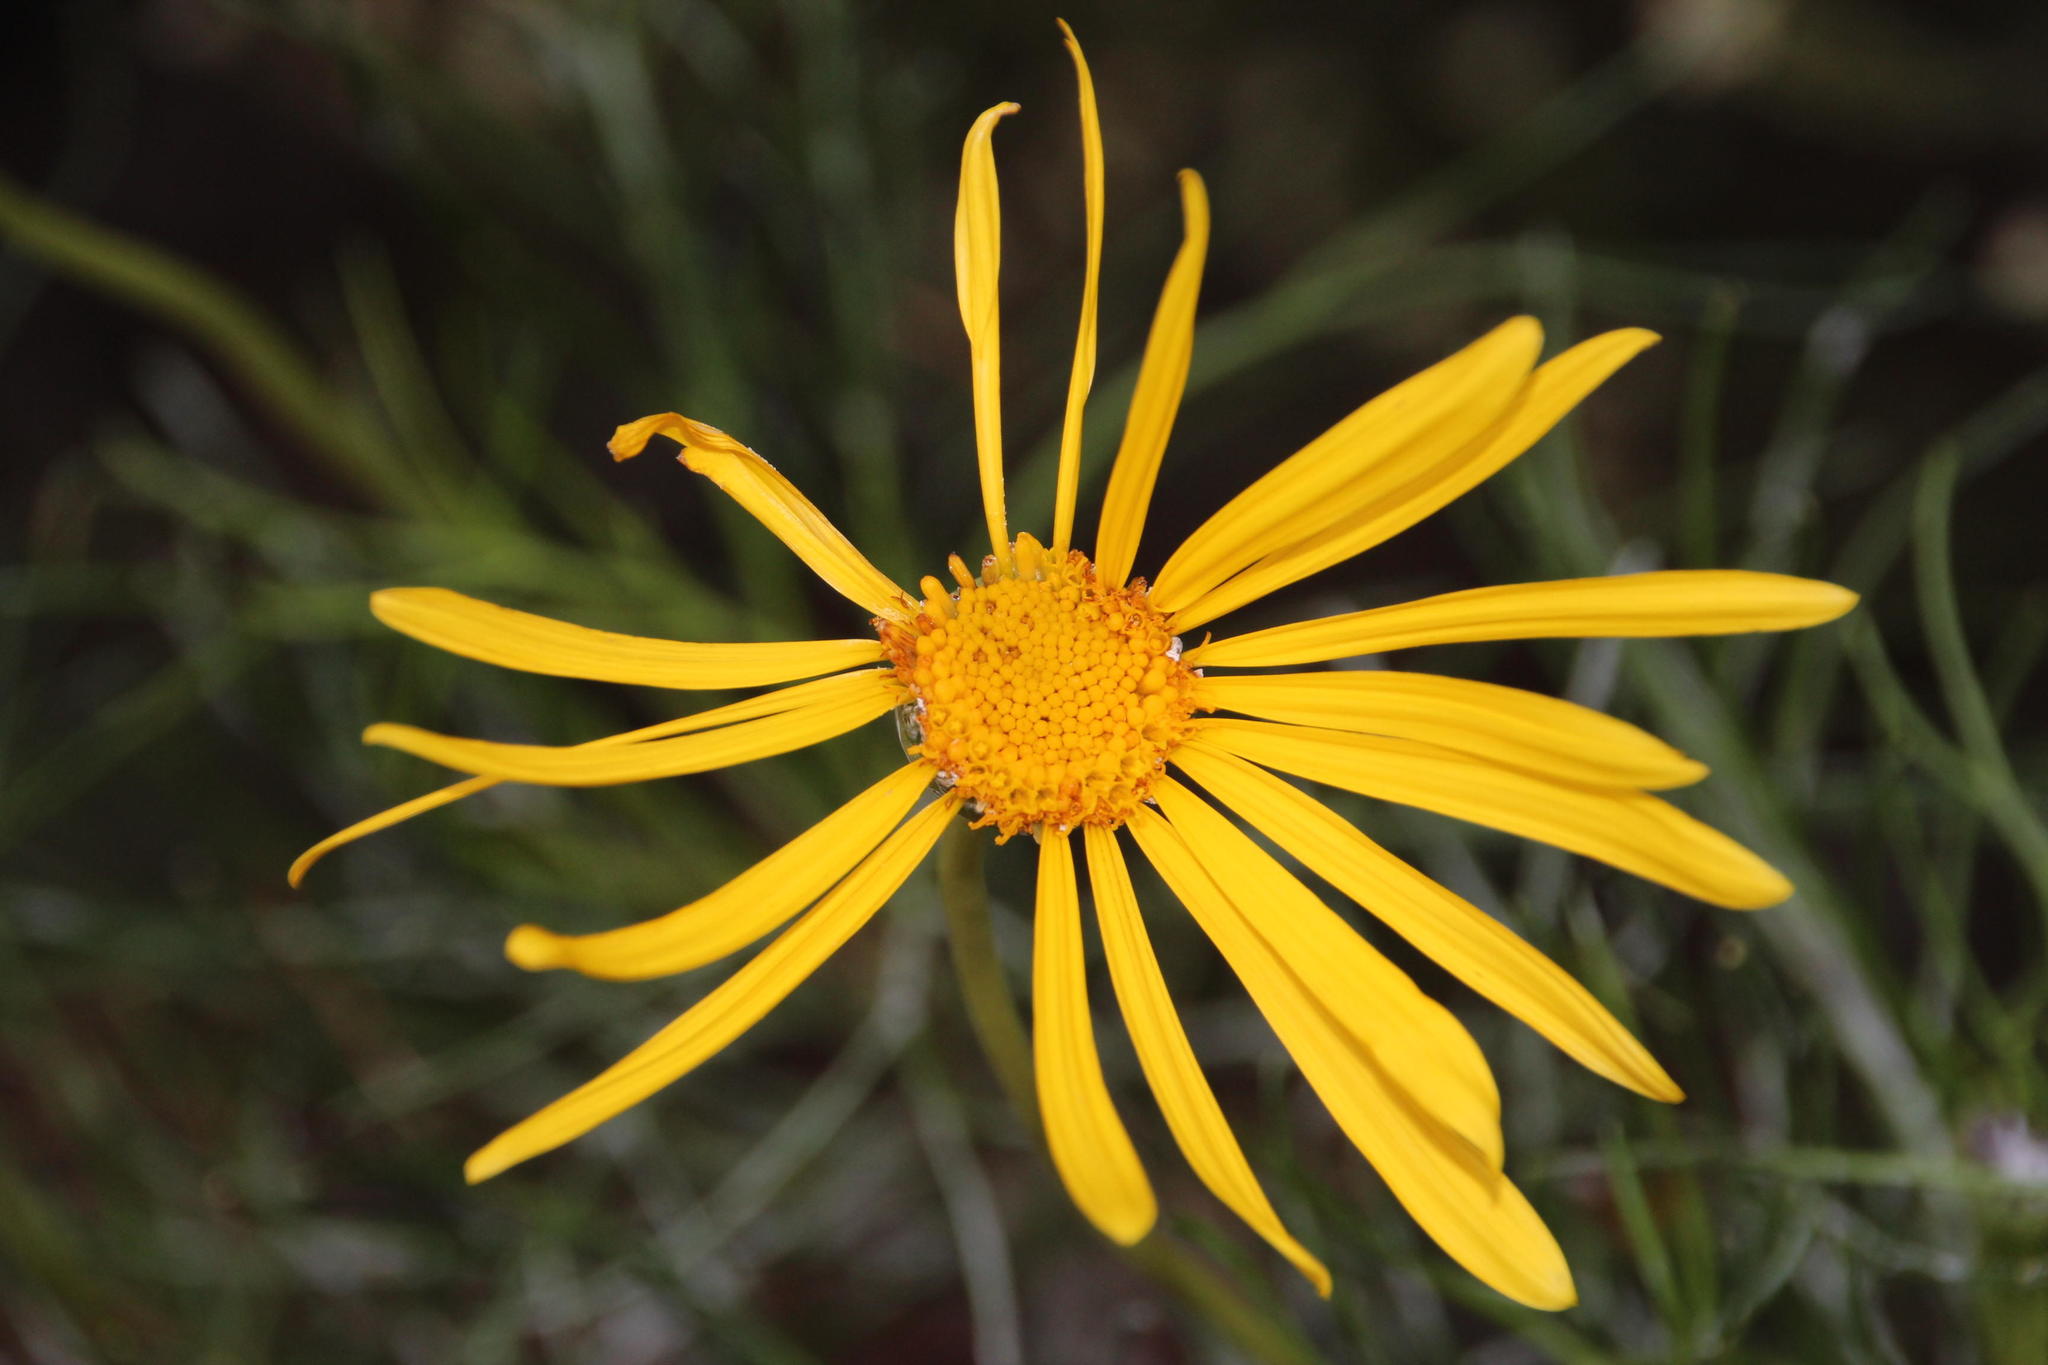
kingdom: Plantae
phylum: Tracheophyta
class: Magnoliopsida
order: Asterales
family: Asteraceae
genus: Euryops
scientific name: Euryops speciosissimus
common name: Clanwilliam daisy
